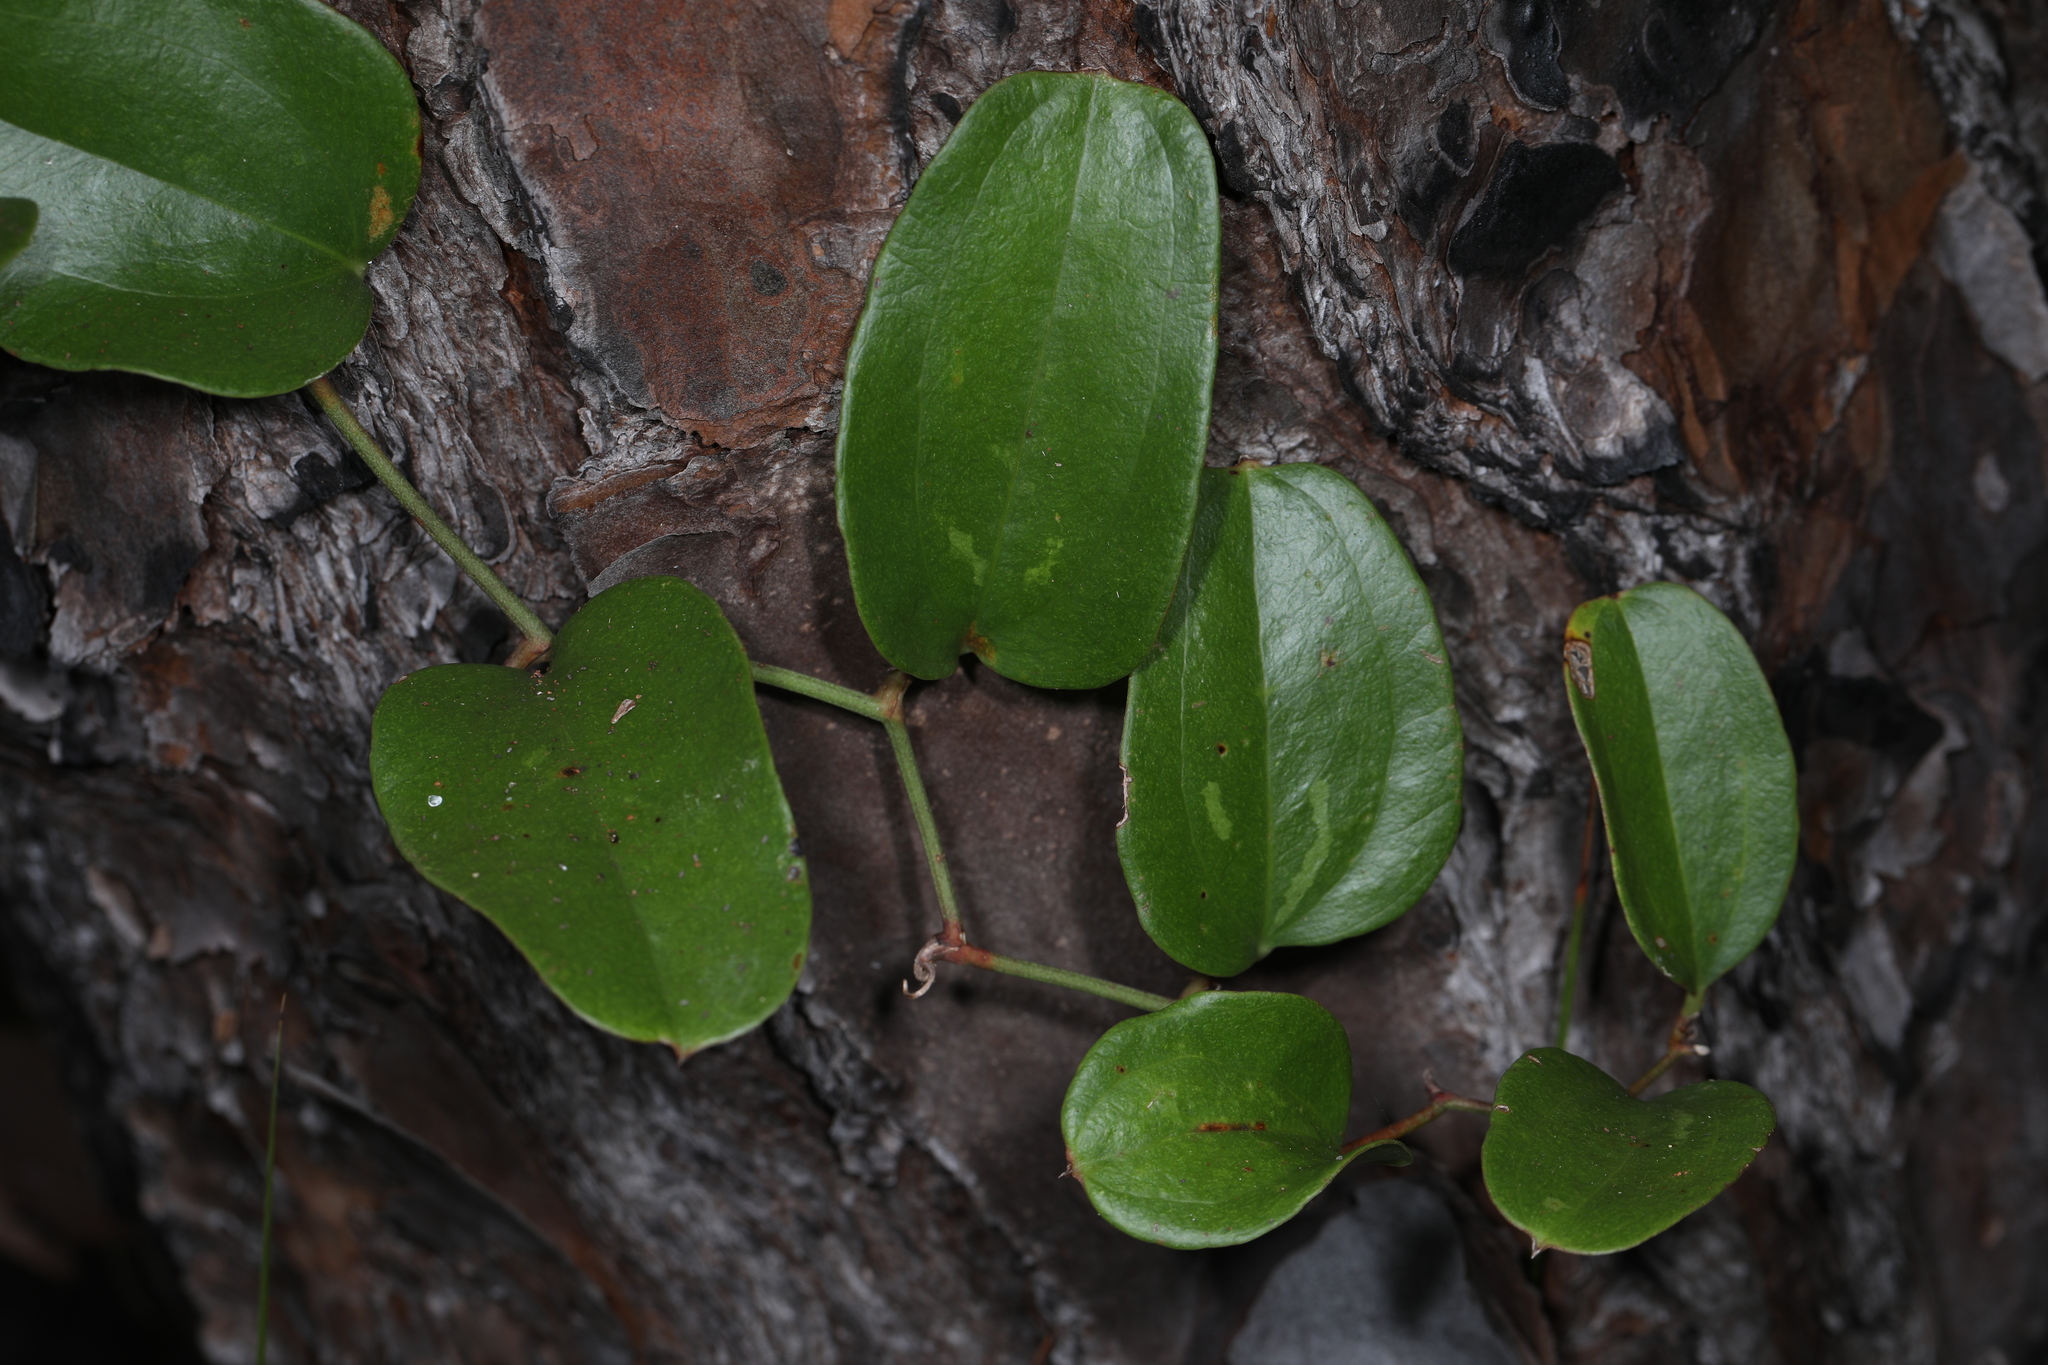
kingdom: Plantae
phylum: Tracheophyta
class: Liliopsida
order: Liliales
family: Smilacaceae
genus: Smilax
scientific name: Smilax auriculata
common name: Wild bamboo
